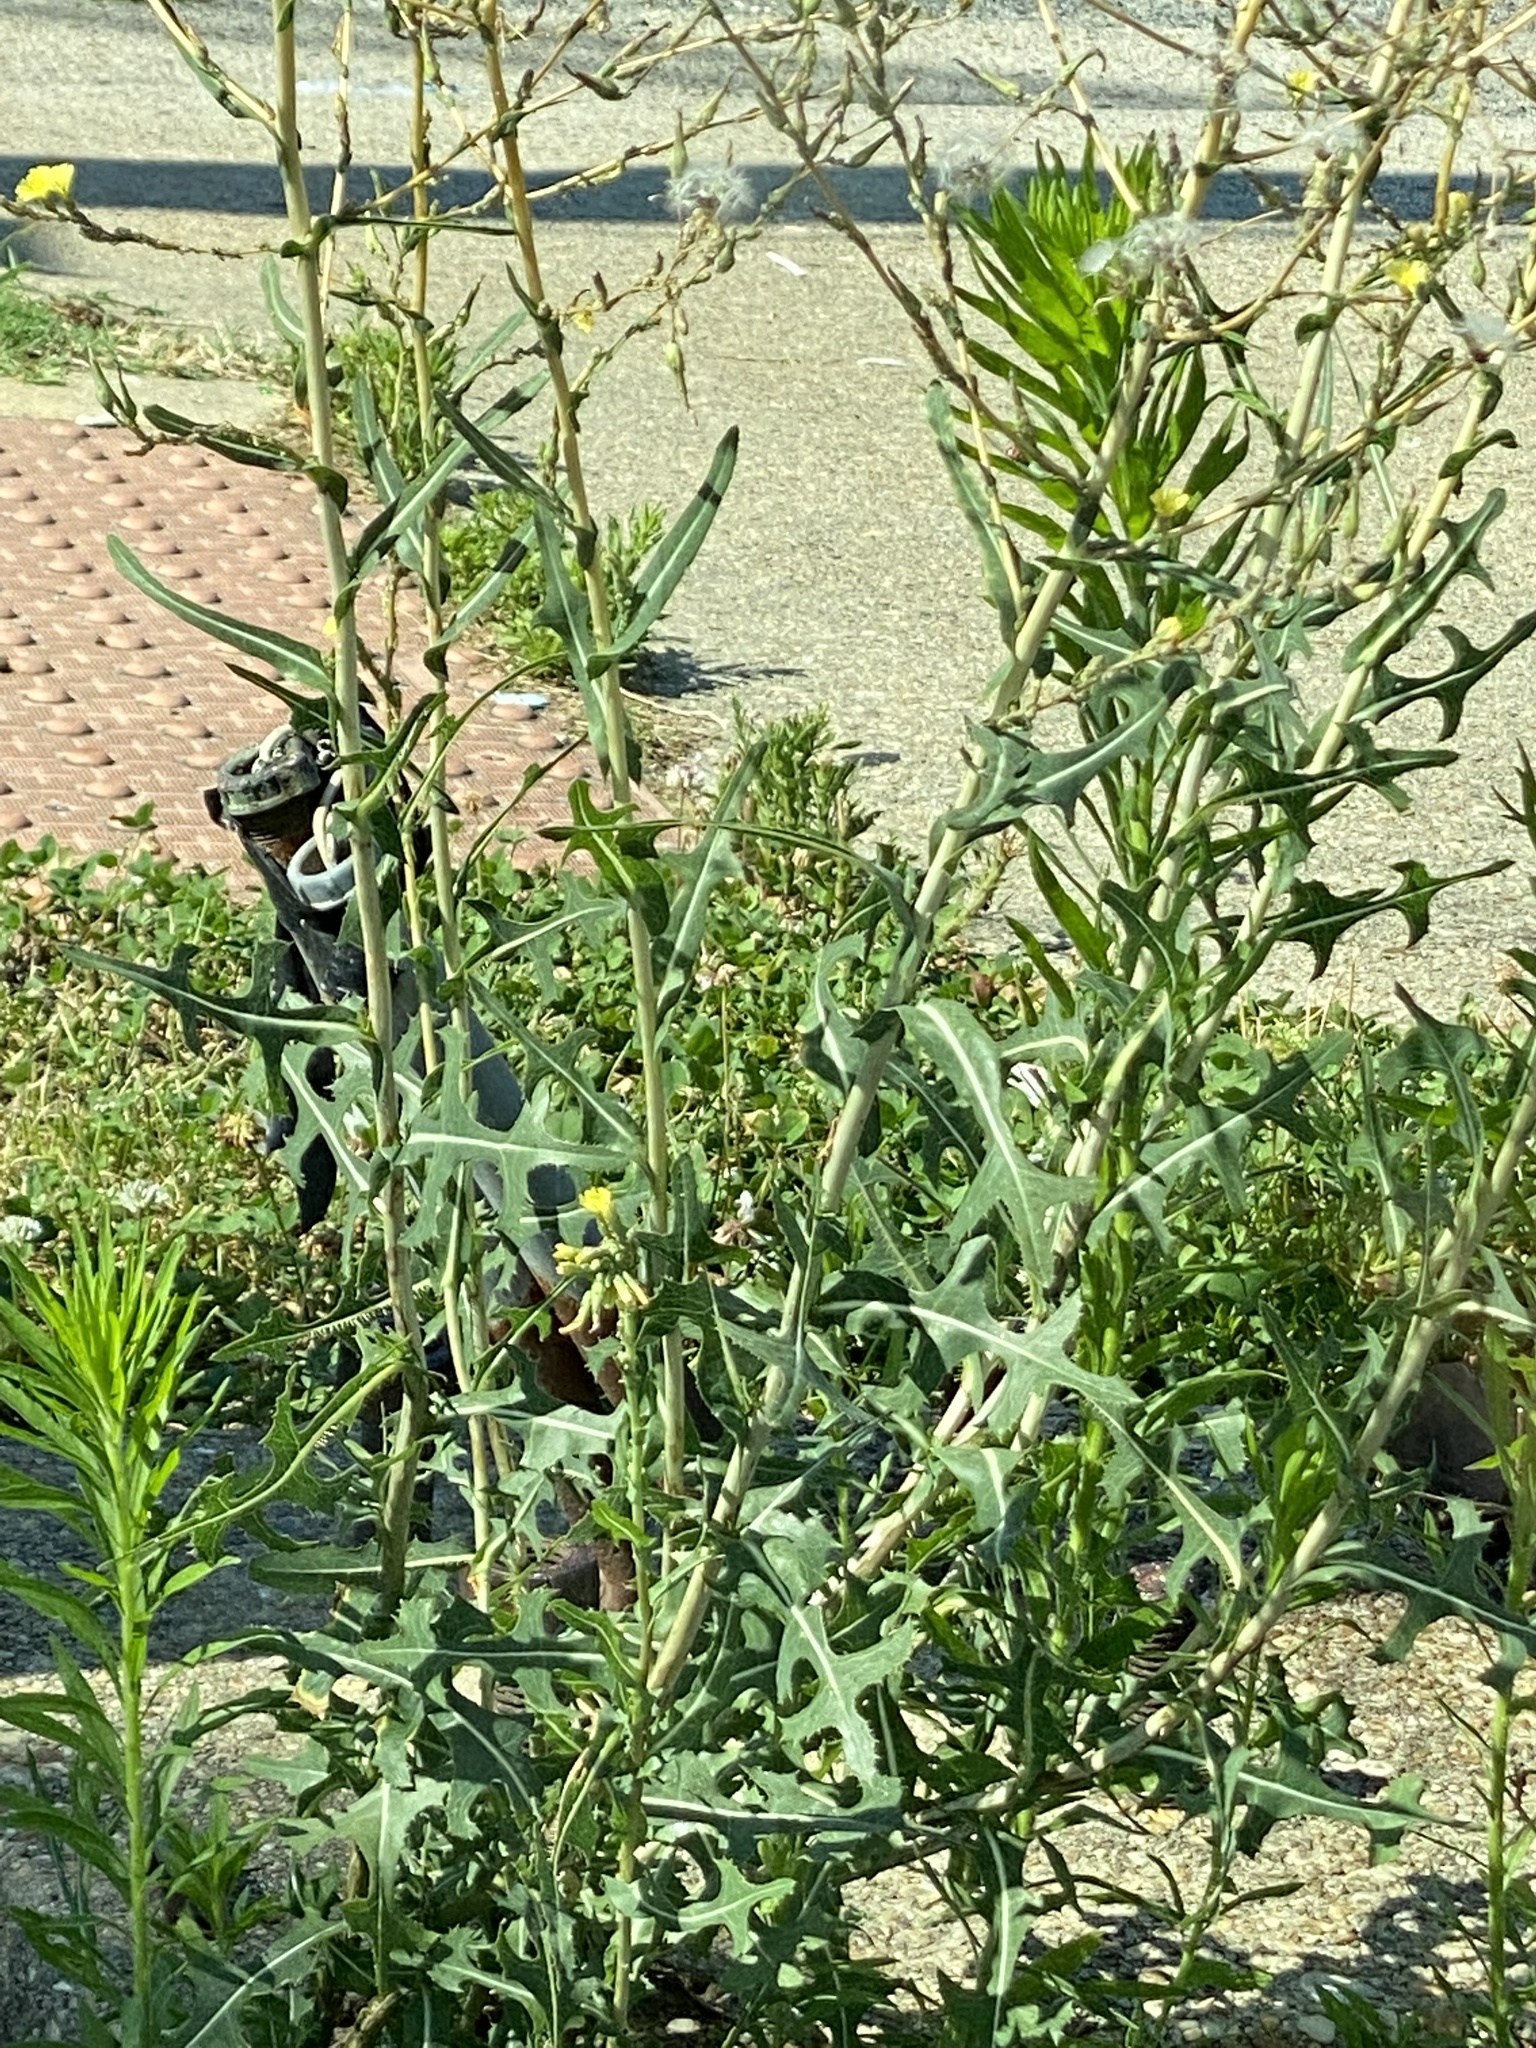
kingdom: Plantae
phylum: Tracheophyta
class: Magnoliopsida
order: Asterales
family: Asteraceae
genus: Lactuca
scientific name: Lactuca serriola
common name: Prickly lettuce
